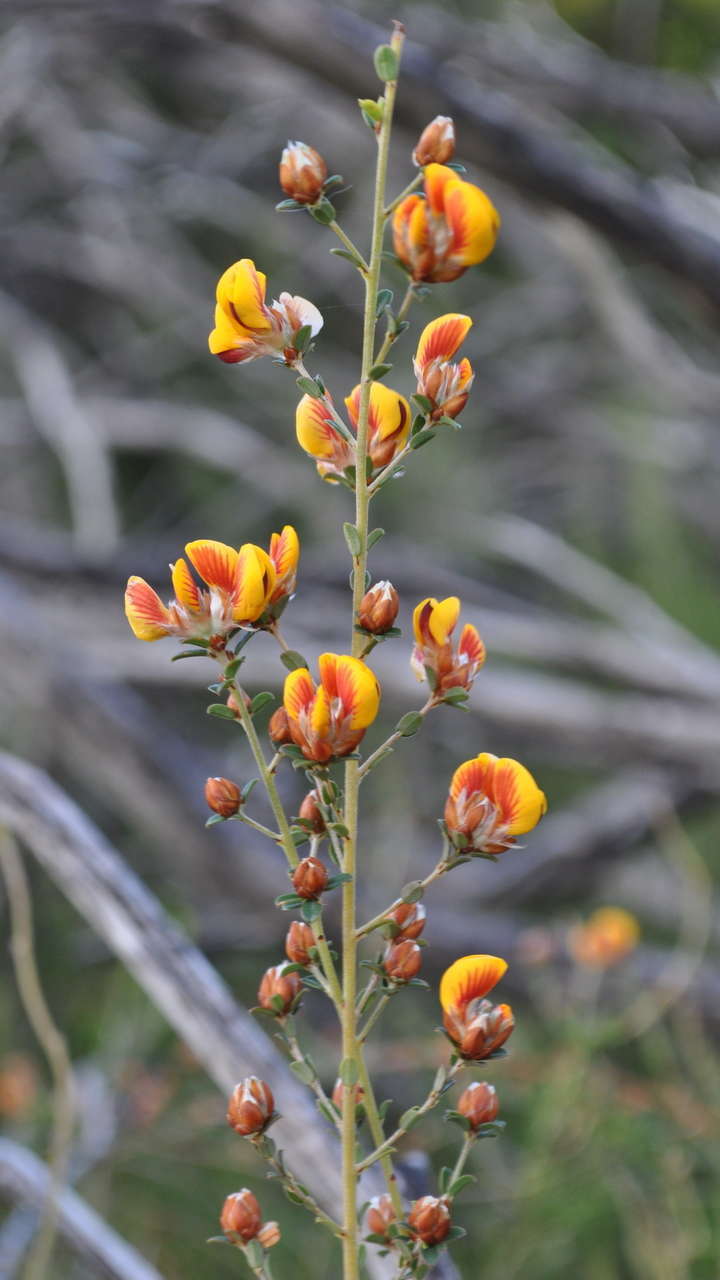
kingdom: Plantae
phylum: Tracheophyta
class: Magnoliopsida
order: Fabales
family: Fabaceae
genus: Pultenaea
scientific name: Pultenaea stricta
